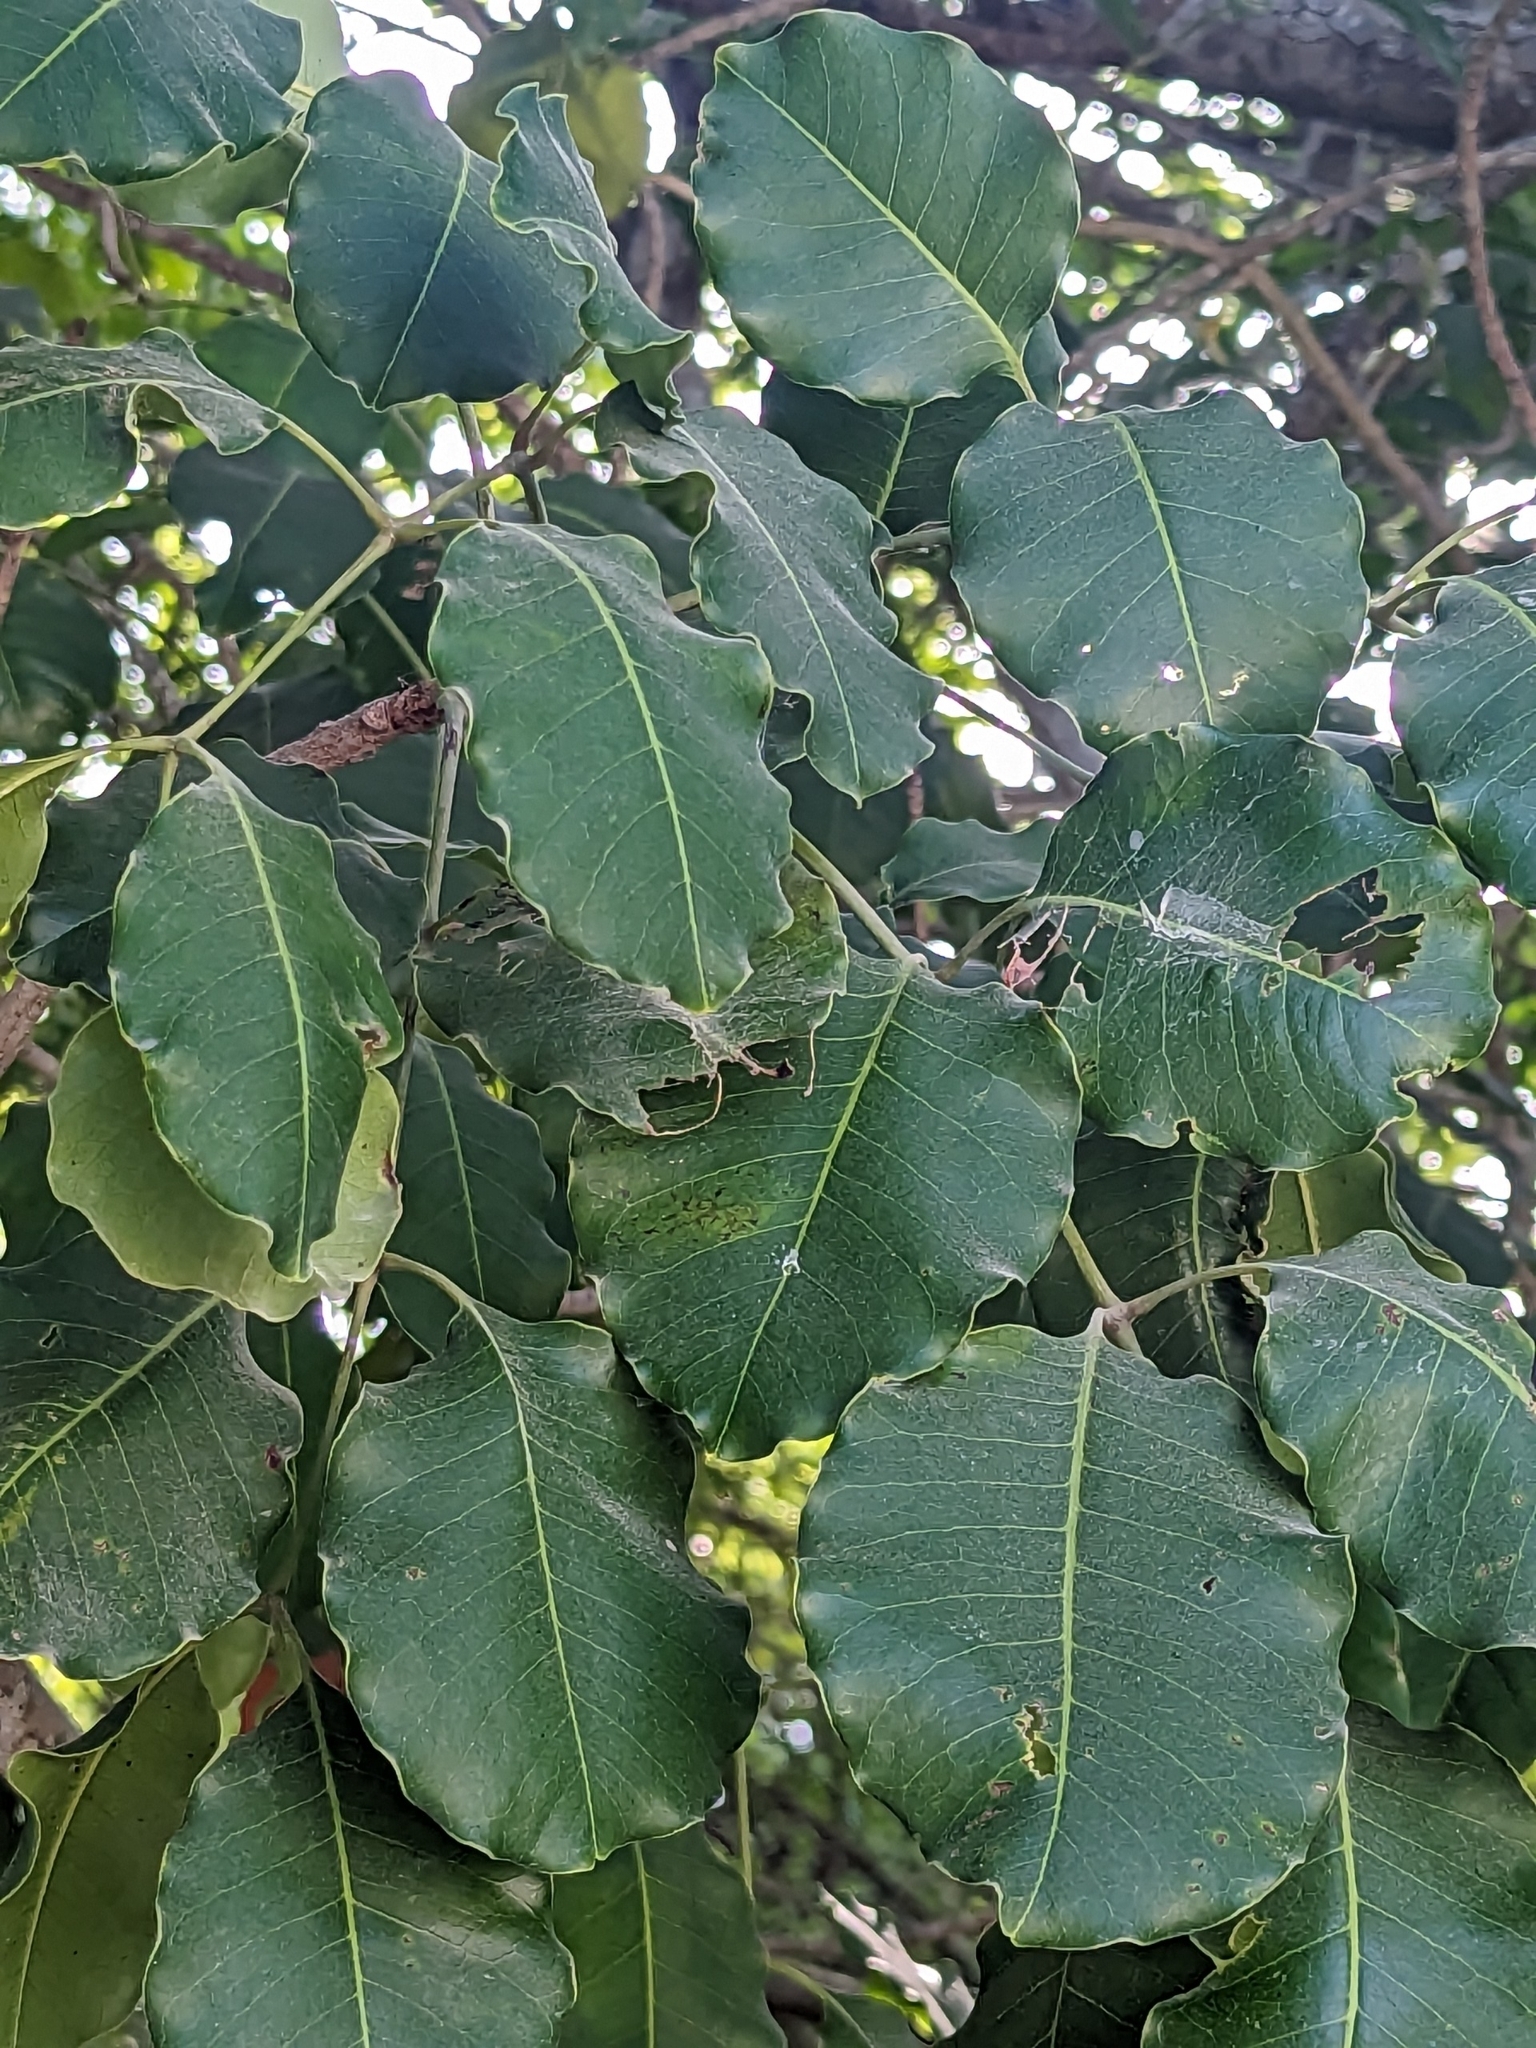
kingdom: Plantae
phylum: Tracheophyta
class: Magnoliopsida
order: Sapindales
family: Anacardiaceae
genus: Metopium
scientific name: Metopium brownei
